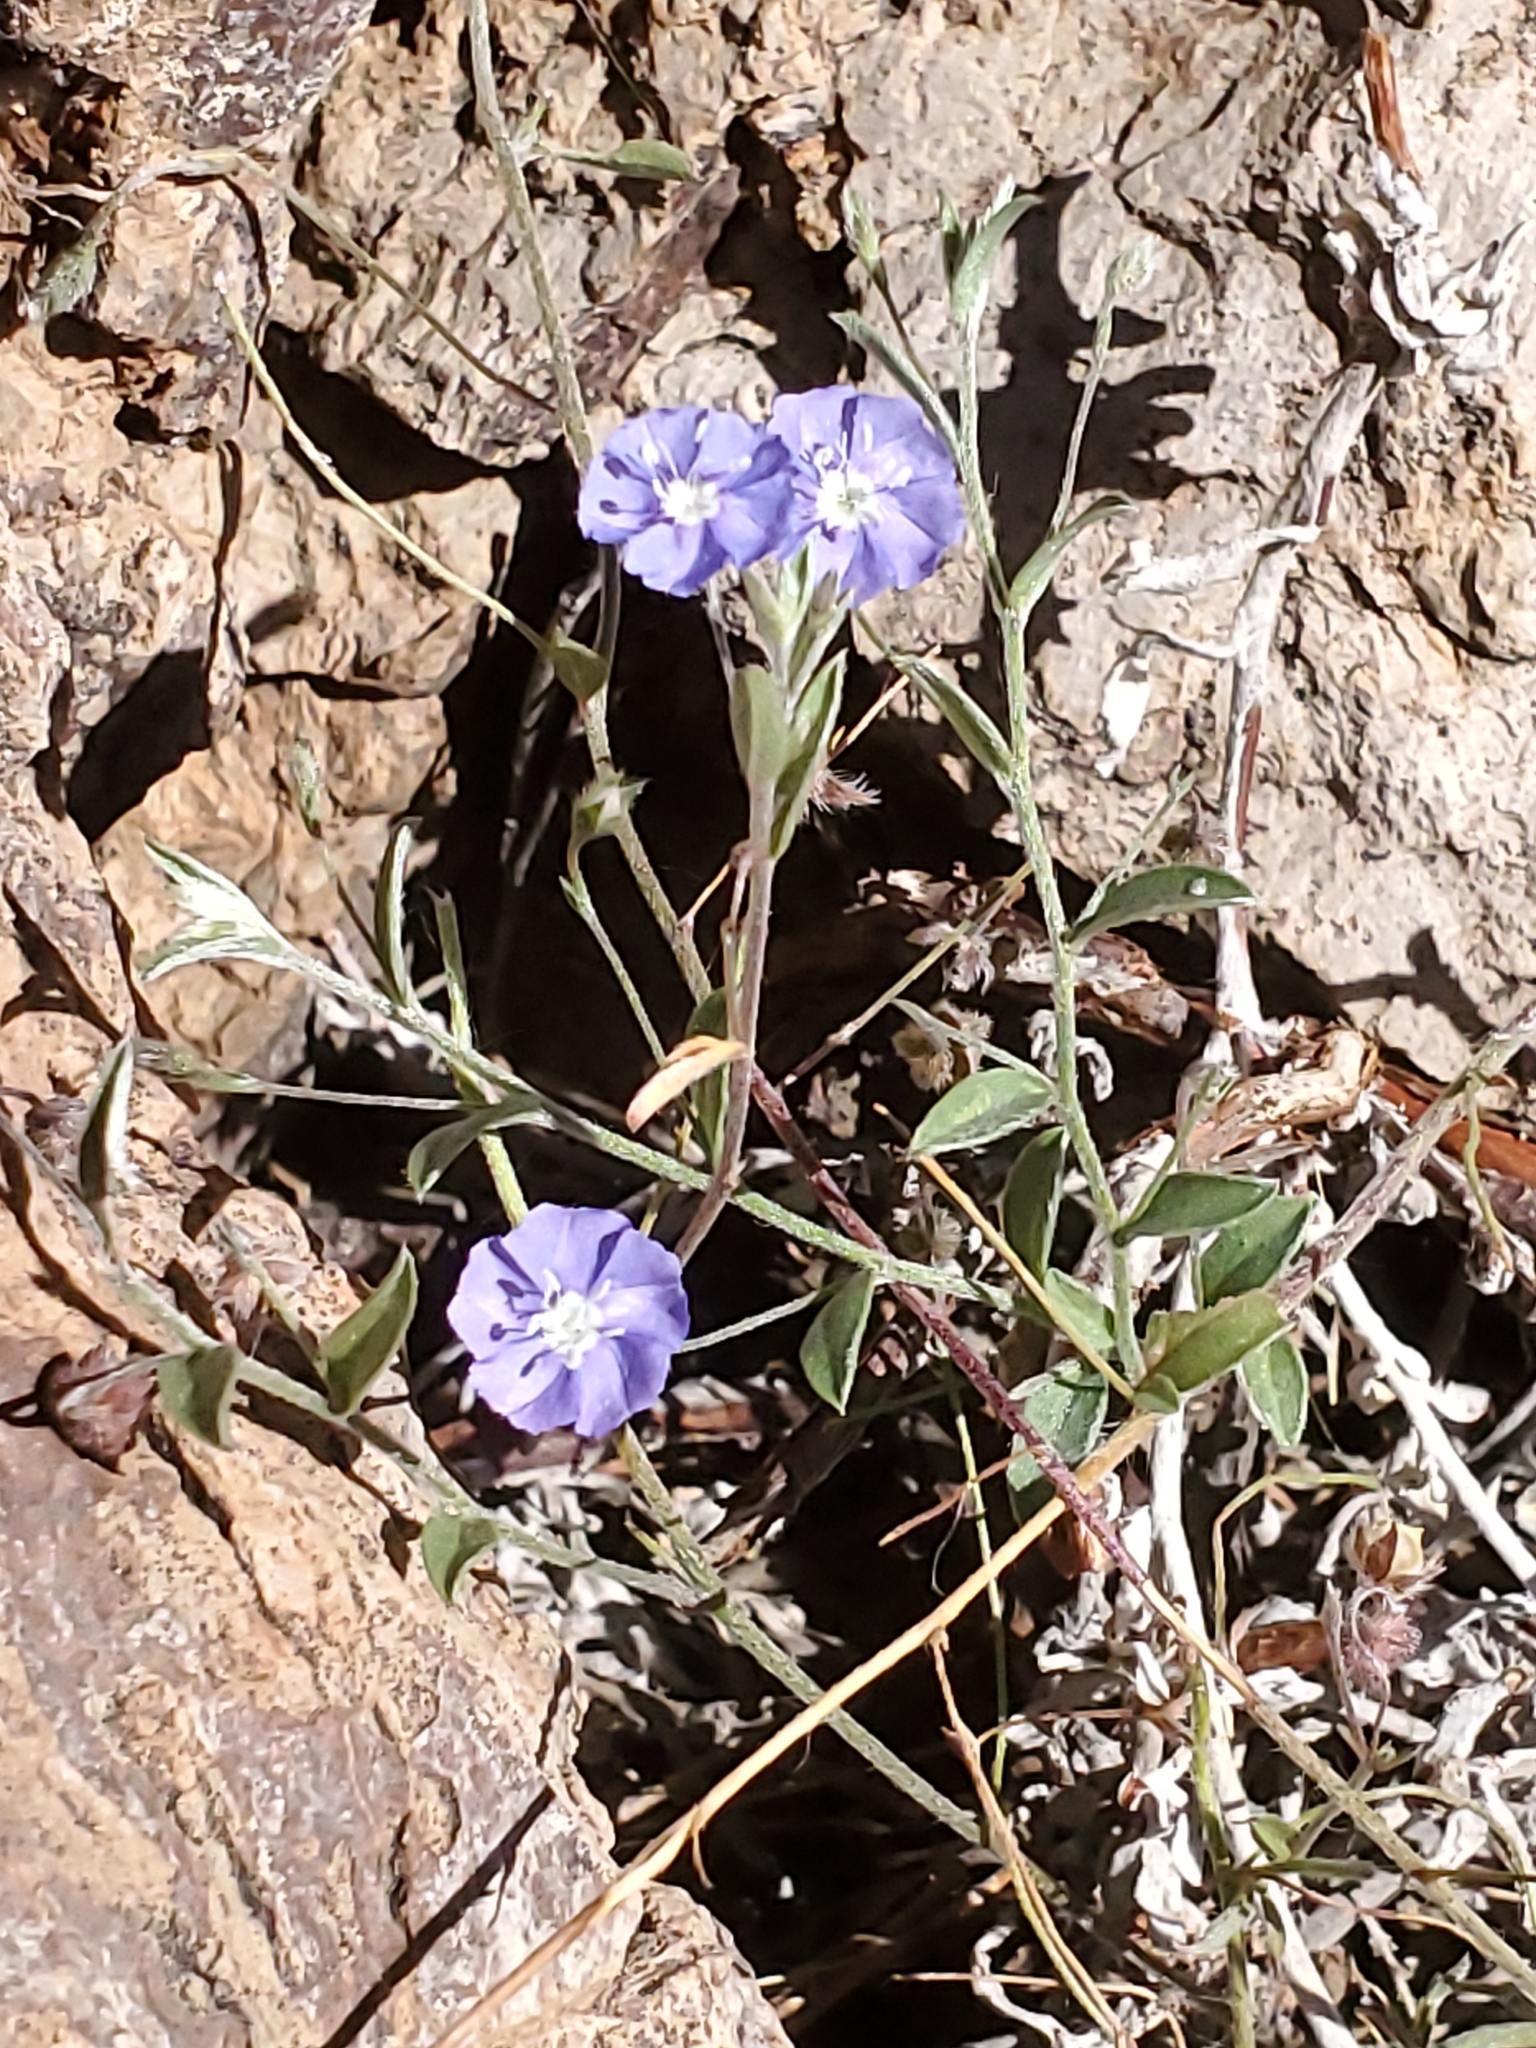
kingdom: Plantae
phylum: Tracheophyta
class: Magnoliopsida
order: Solanales
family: Convolvulaceae
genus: Evolvulus
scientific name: Evolvulus alsinoides
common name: Slender dwarf morning-glory
